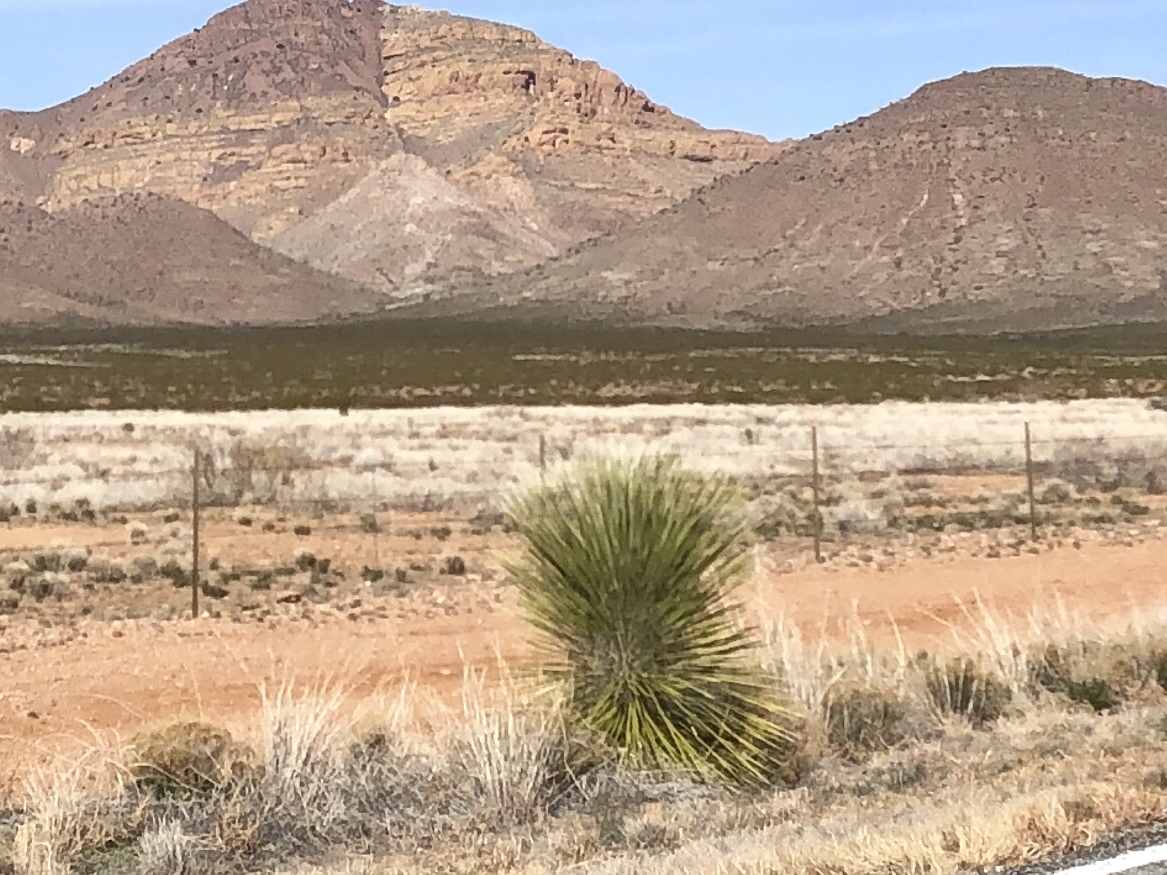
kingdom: Plantae
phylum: Tracheophyta
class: Liliopsida
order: Asparagales
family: Asparagaceae
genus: Yucca
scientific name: Yucca elata
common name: Palmella
